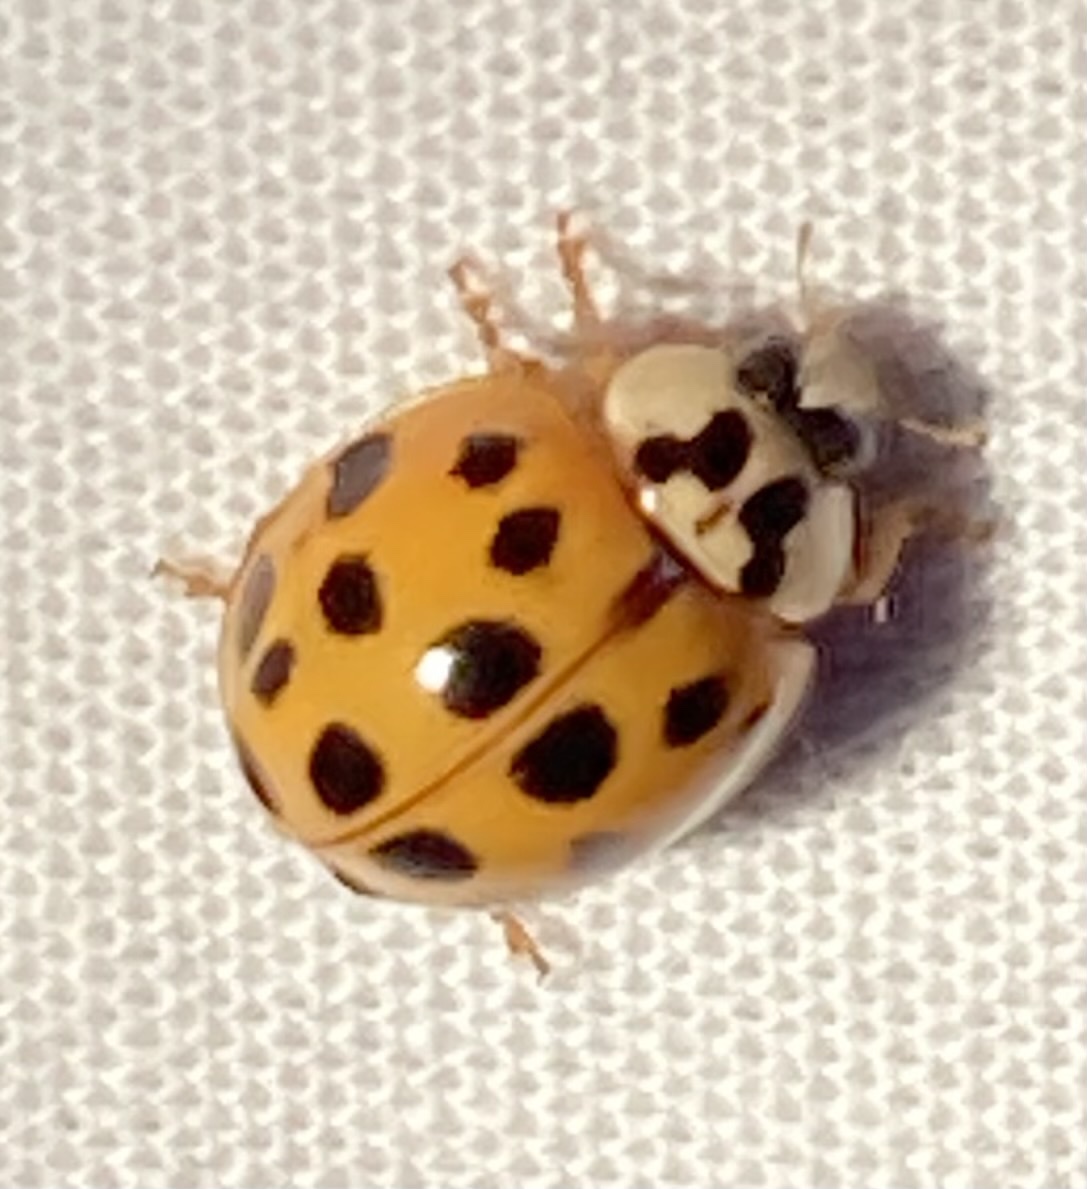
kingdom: Animalia
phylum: Arthropoda
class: Insecta
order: Coleoptera
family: Coccinellidae
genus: Harmonia
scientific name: Harmonia axyridis
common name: Harlequin ladybird
